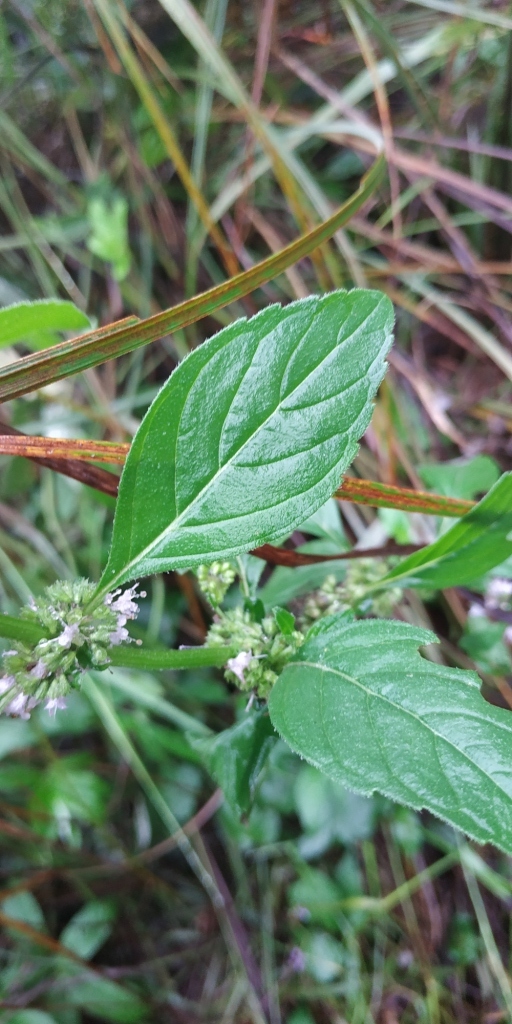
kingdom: Plantae
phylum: Tracheophyta
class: Magnoliopsida
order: Lamiales
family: Lamiaceae
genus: Mentha
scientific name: Mentha arvensis
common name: Corn mint
